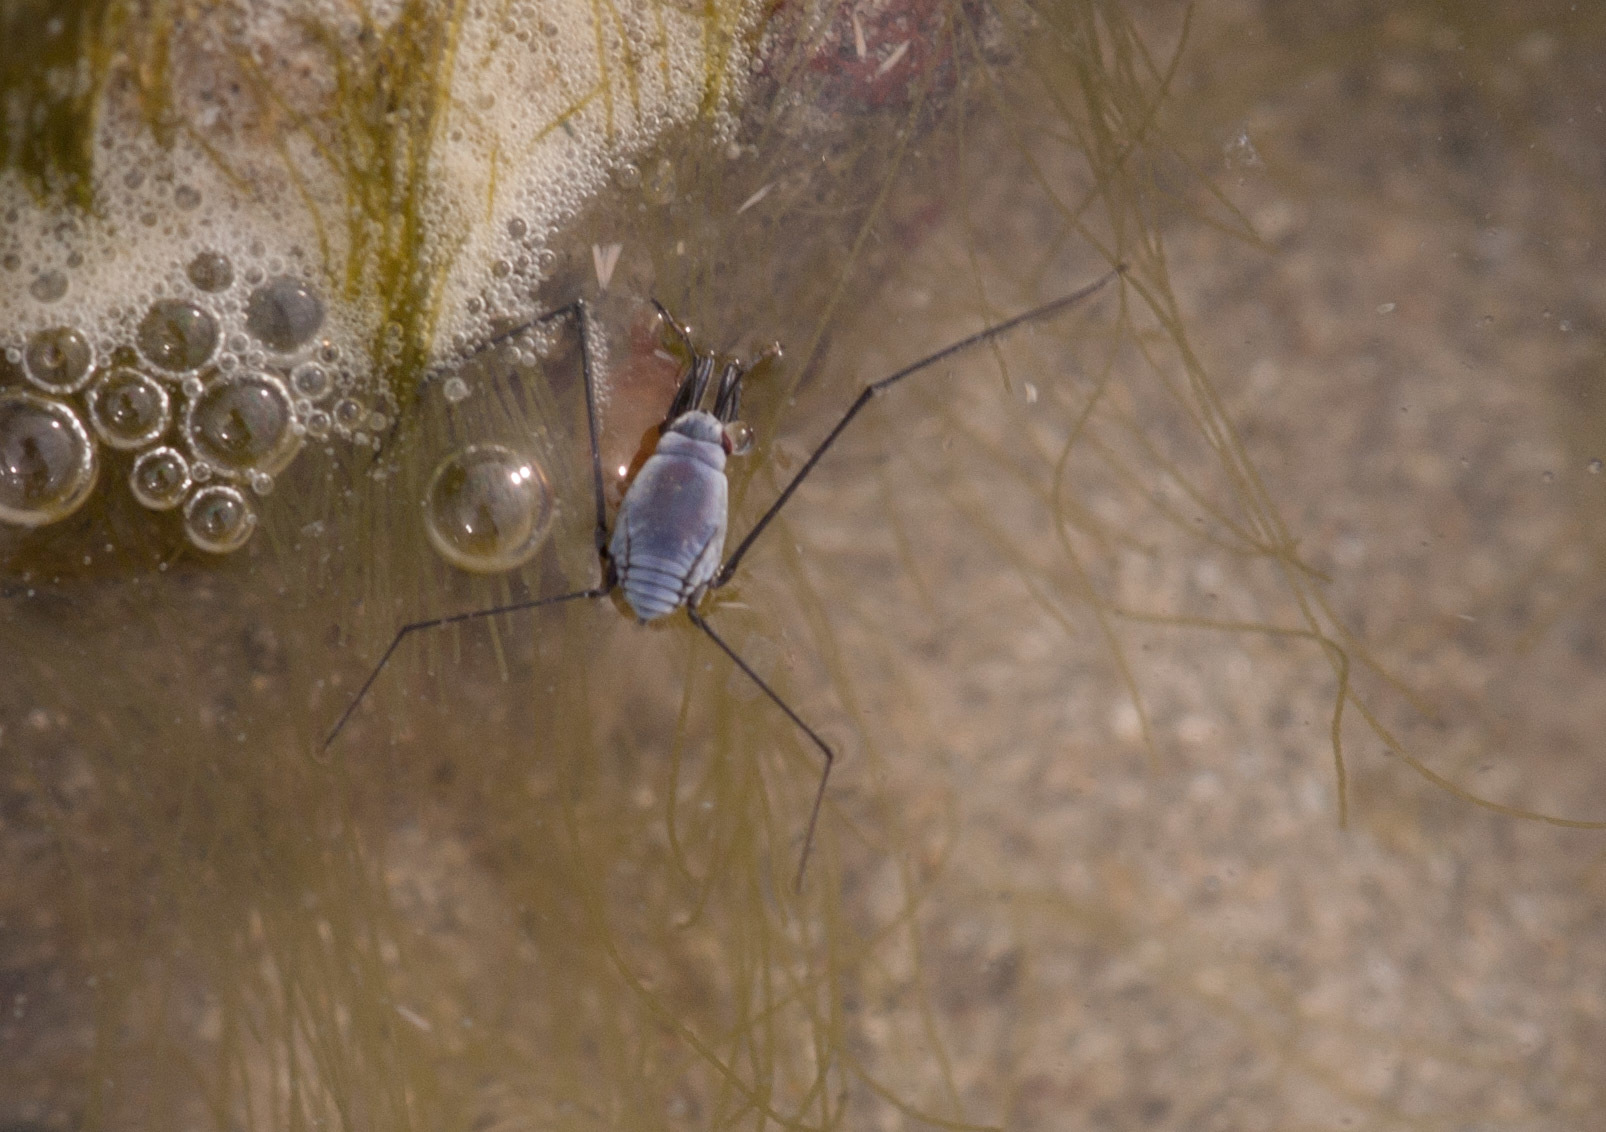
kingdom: Animalia
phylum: Arthropoda
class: Insecta
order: Hemiptera
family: Gerridae
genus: Halobates
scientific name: Halobates
